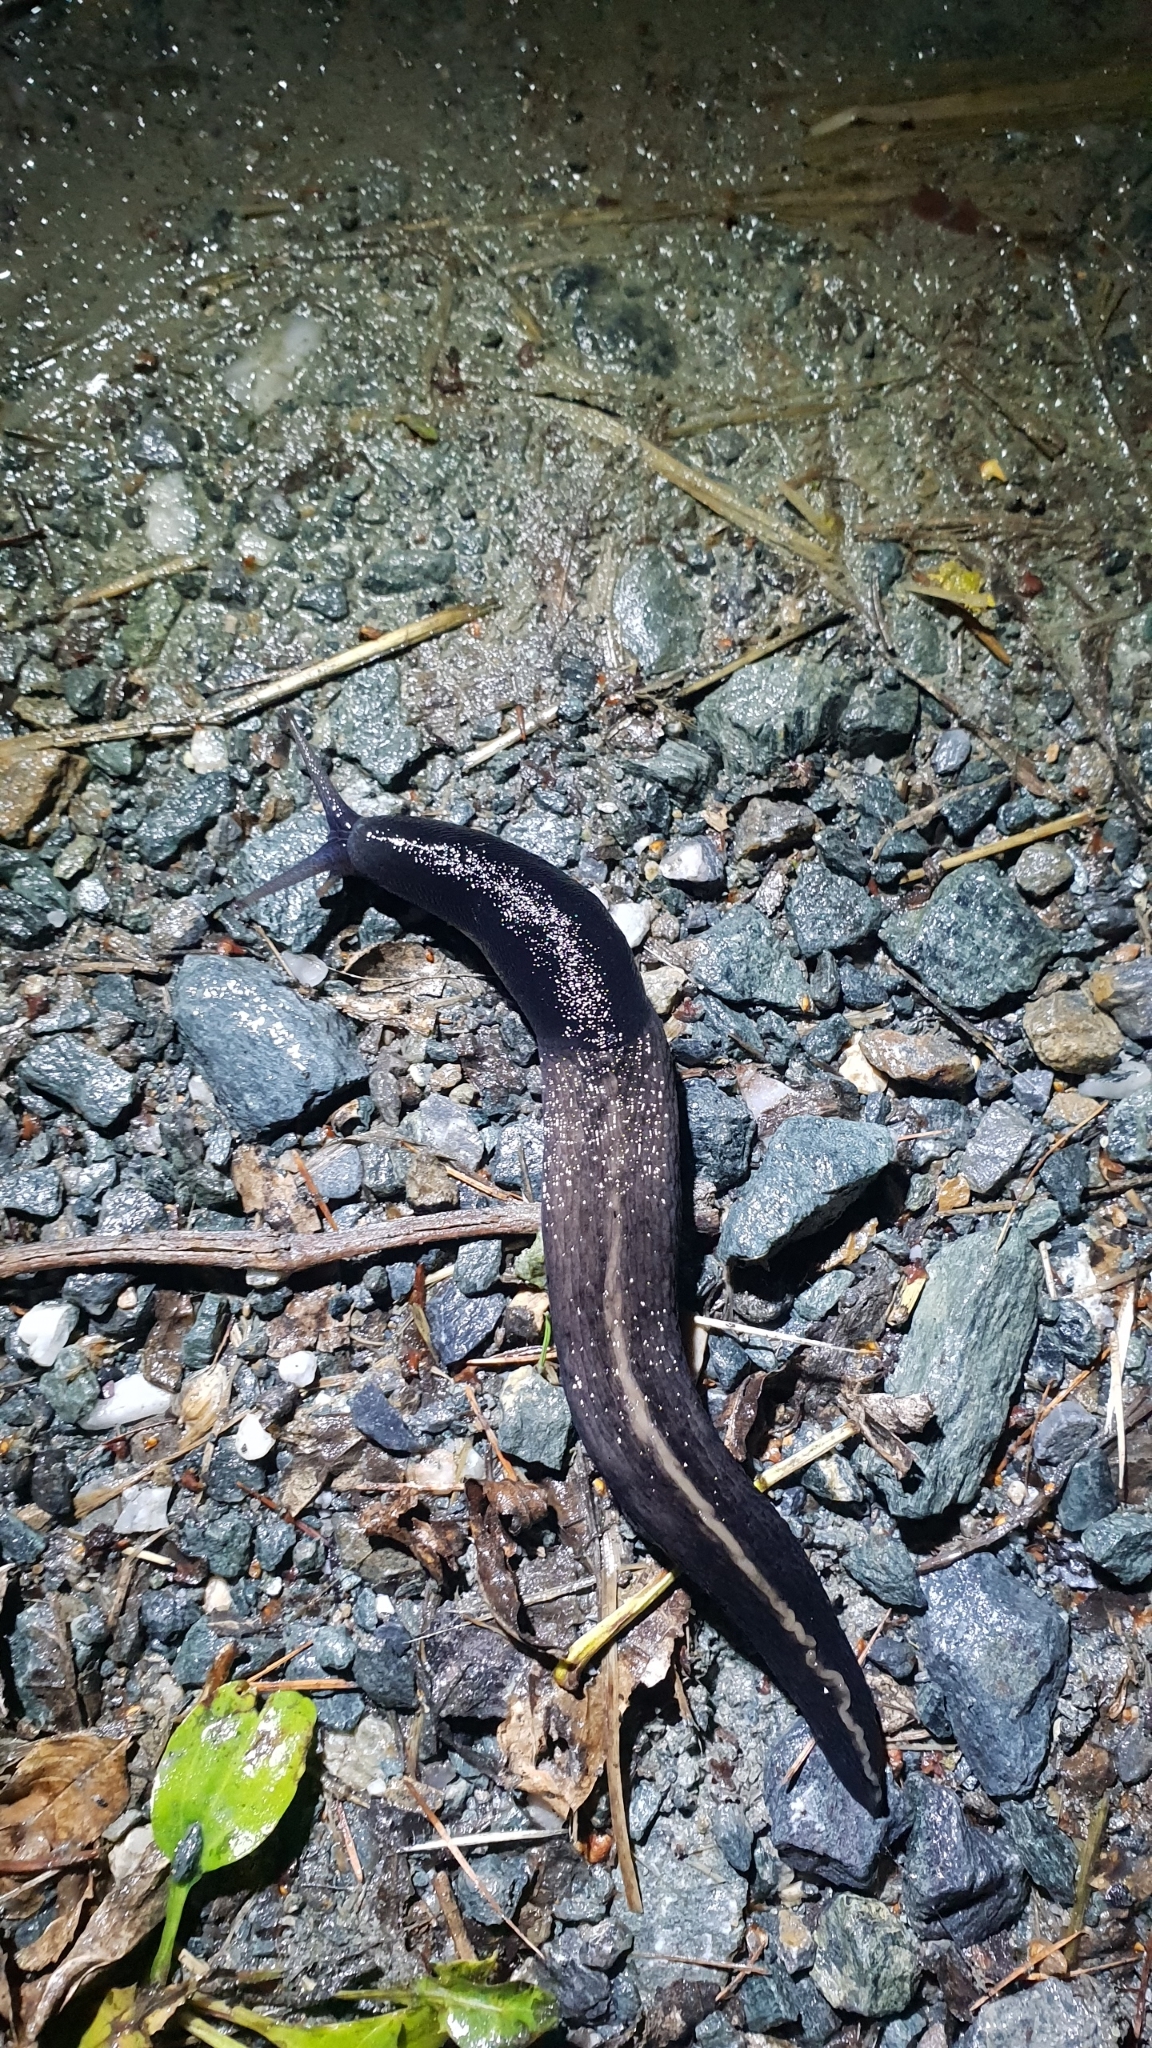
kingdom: Animalia
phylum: Mollusca
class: Gastropoda
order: Stylommatophora
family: Limacidae
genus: Limax
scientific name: Limax cinereoniger
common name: Ash-black slug
